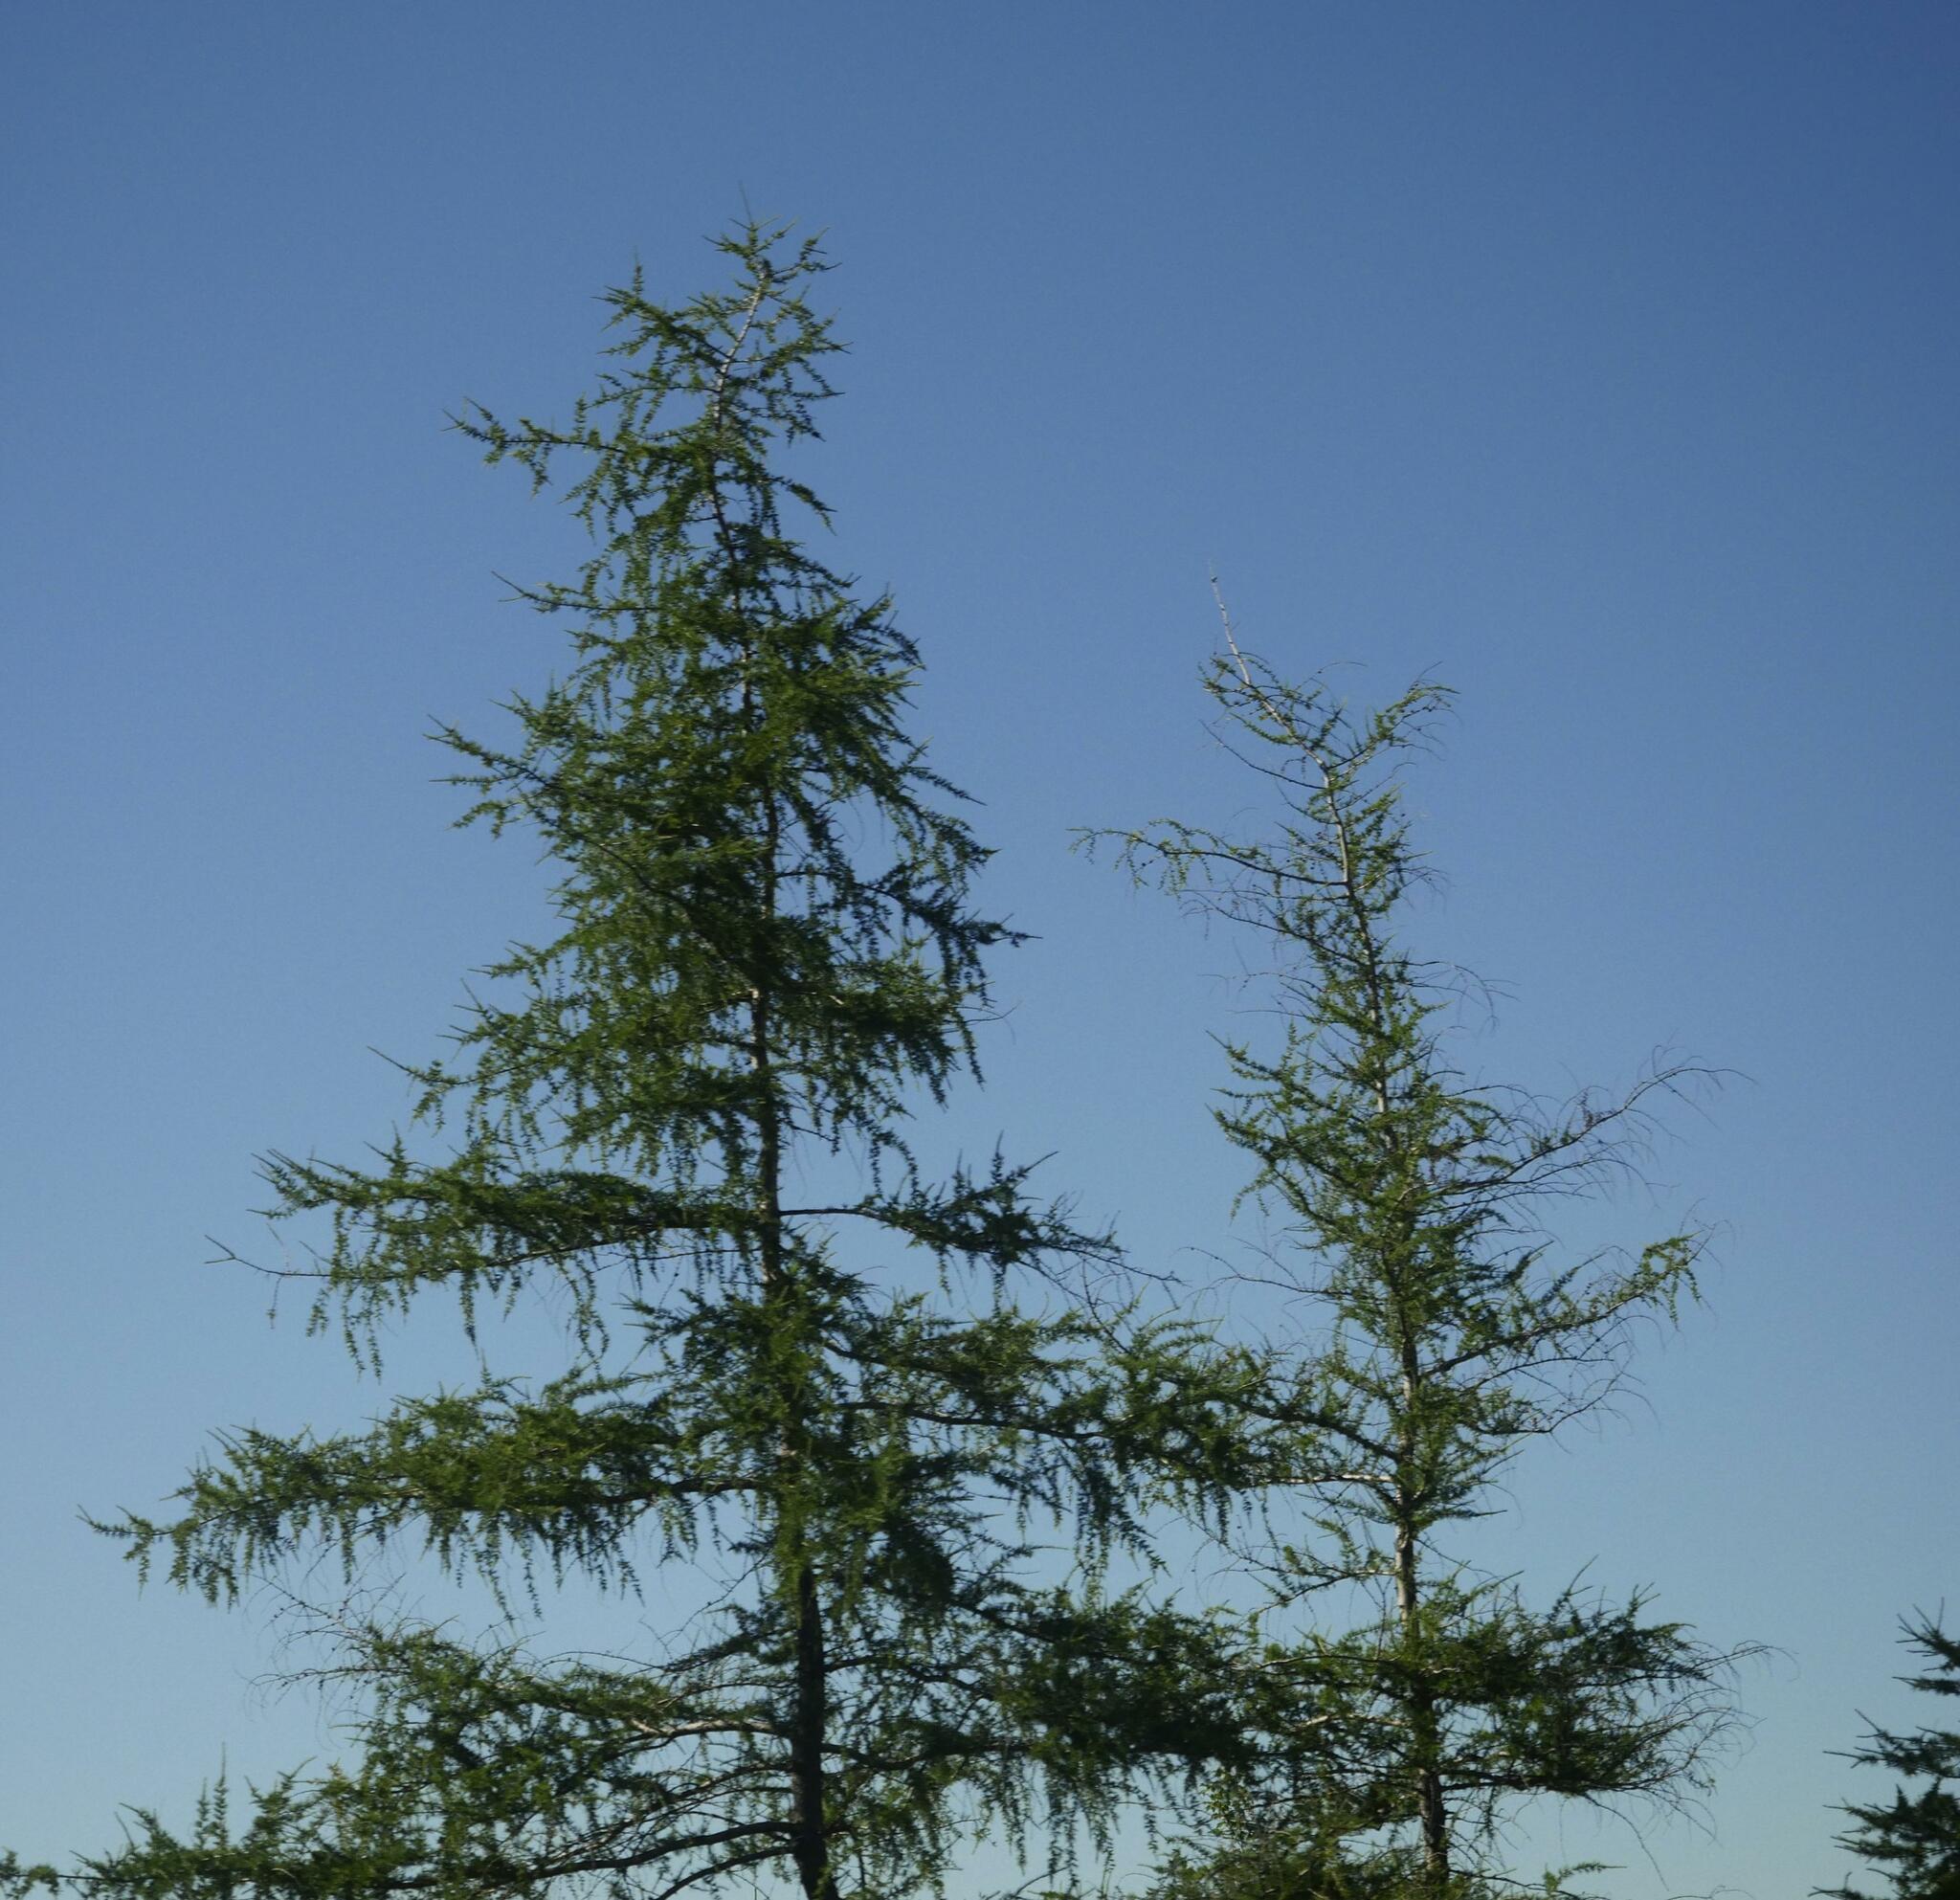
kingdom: Plantae
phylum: Tracheophyta
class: Pinopsida
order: Pinales
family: Pinaceae
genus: Larix
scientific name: Larix laricina
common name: American larch
